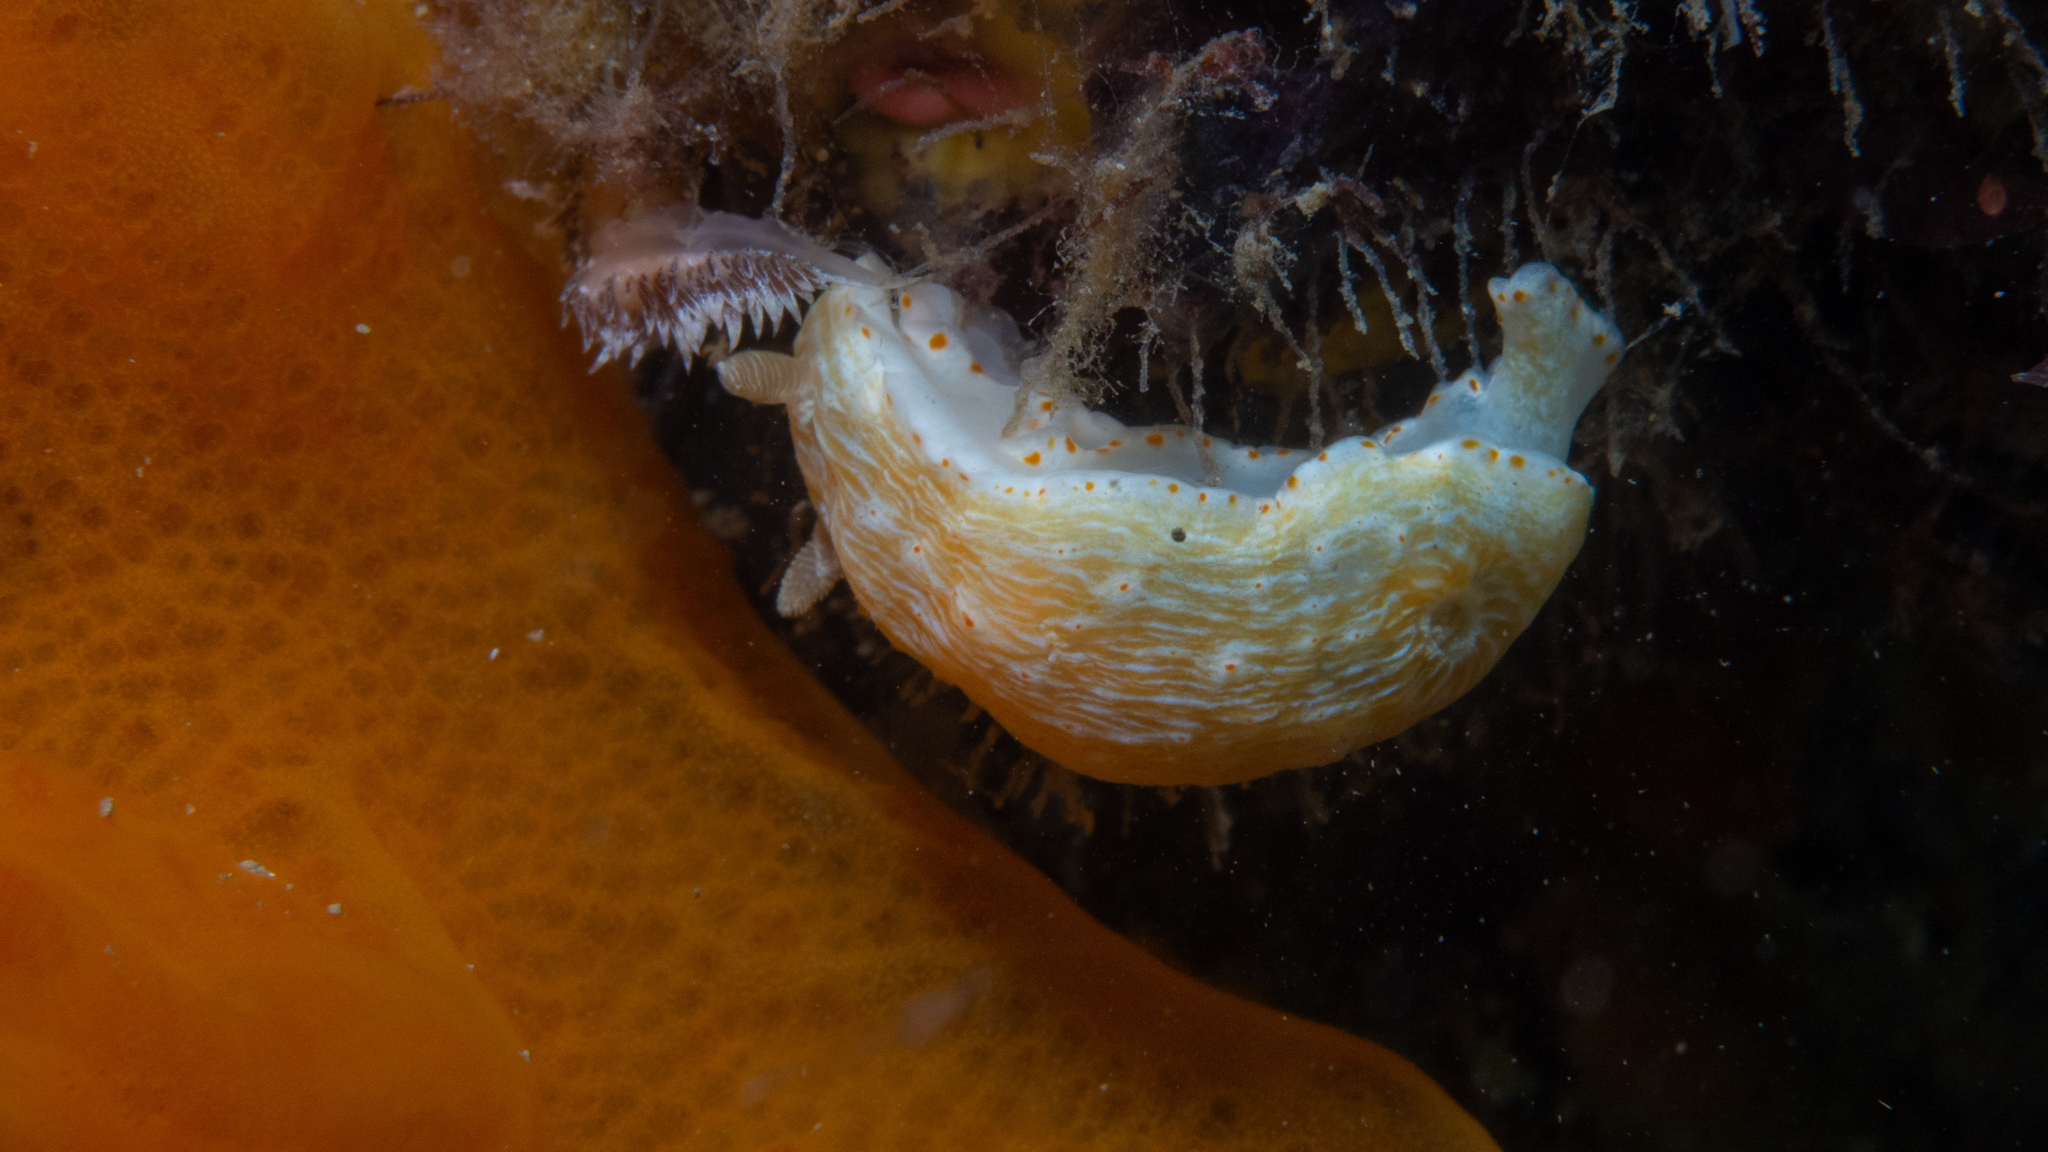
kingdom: Animalia
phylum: Mollusca
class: Gastropoda
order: Nudibranchia
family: Chromodorididae
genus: Goniobranchus
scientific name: Goniobranchus epicurius
